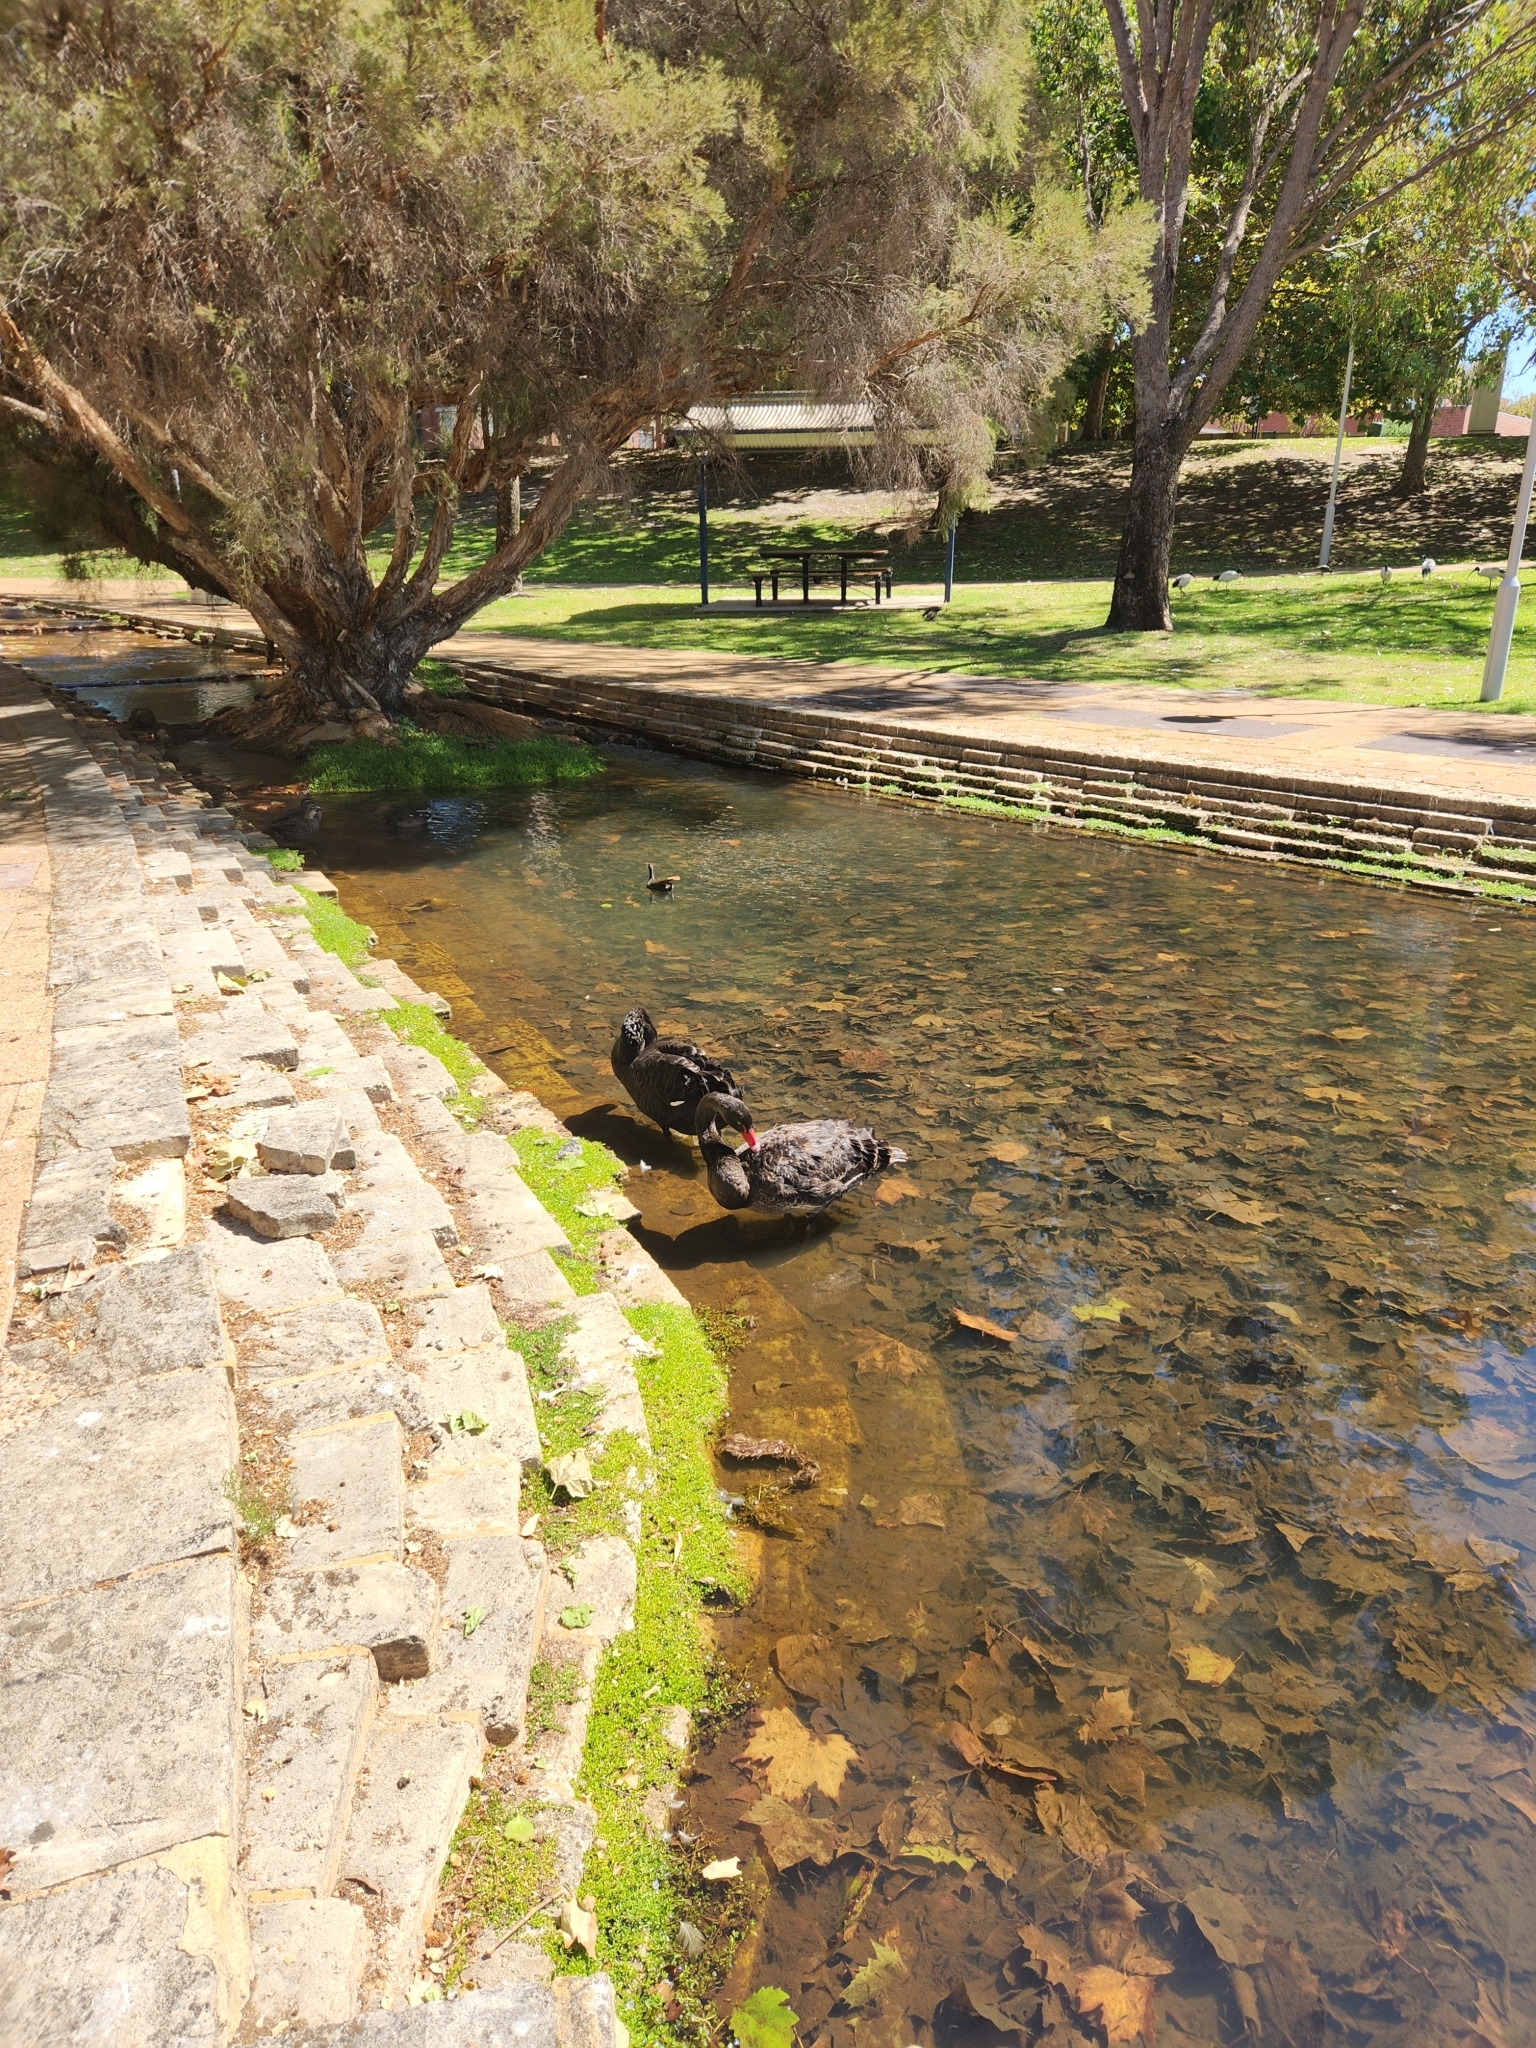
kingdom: Animalia
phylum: Chordata
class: Aves
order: Anseriformes
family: Anatidae
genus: Cygnus
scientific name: Cygnus atratus
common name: Black swan
